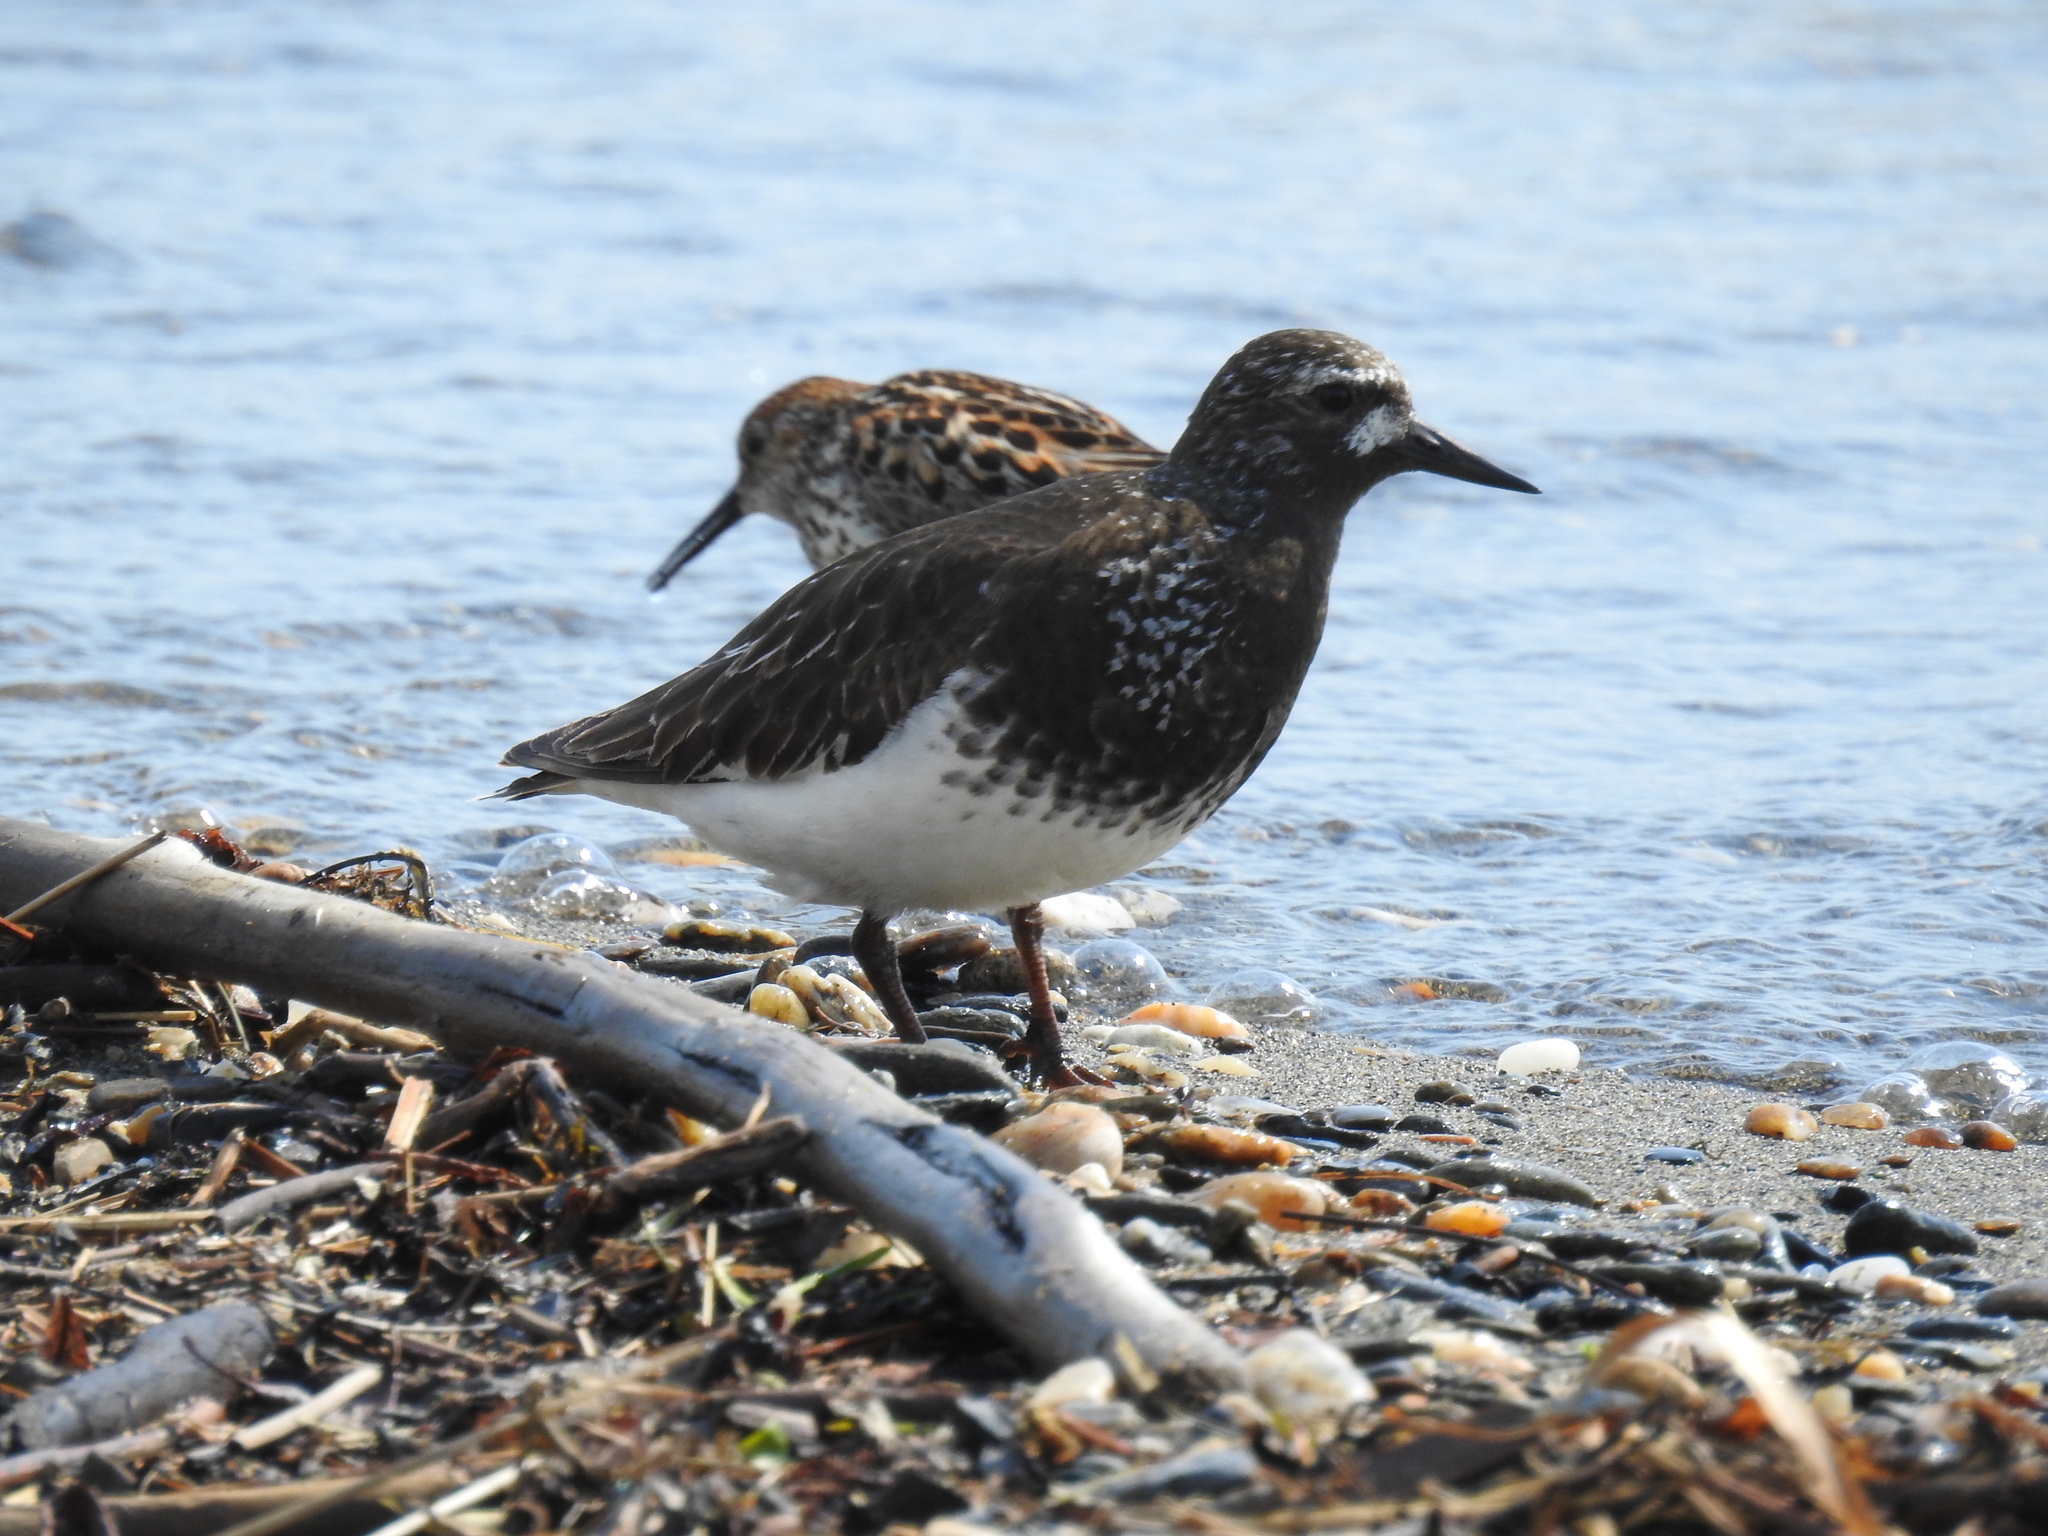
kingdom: Animalia
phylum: Chordata
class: Aves
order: Charadriiformes
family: Scolopacidae
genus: Arenaria
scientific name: Arenaria melanocephala
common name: Black turnstone
